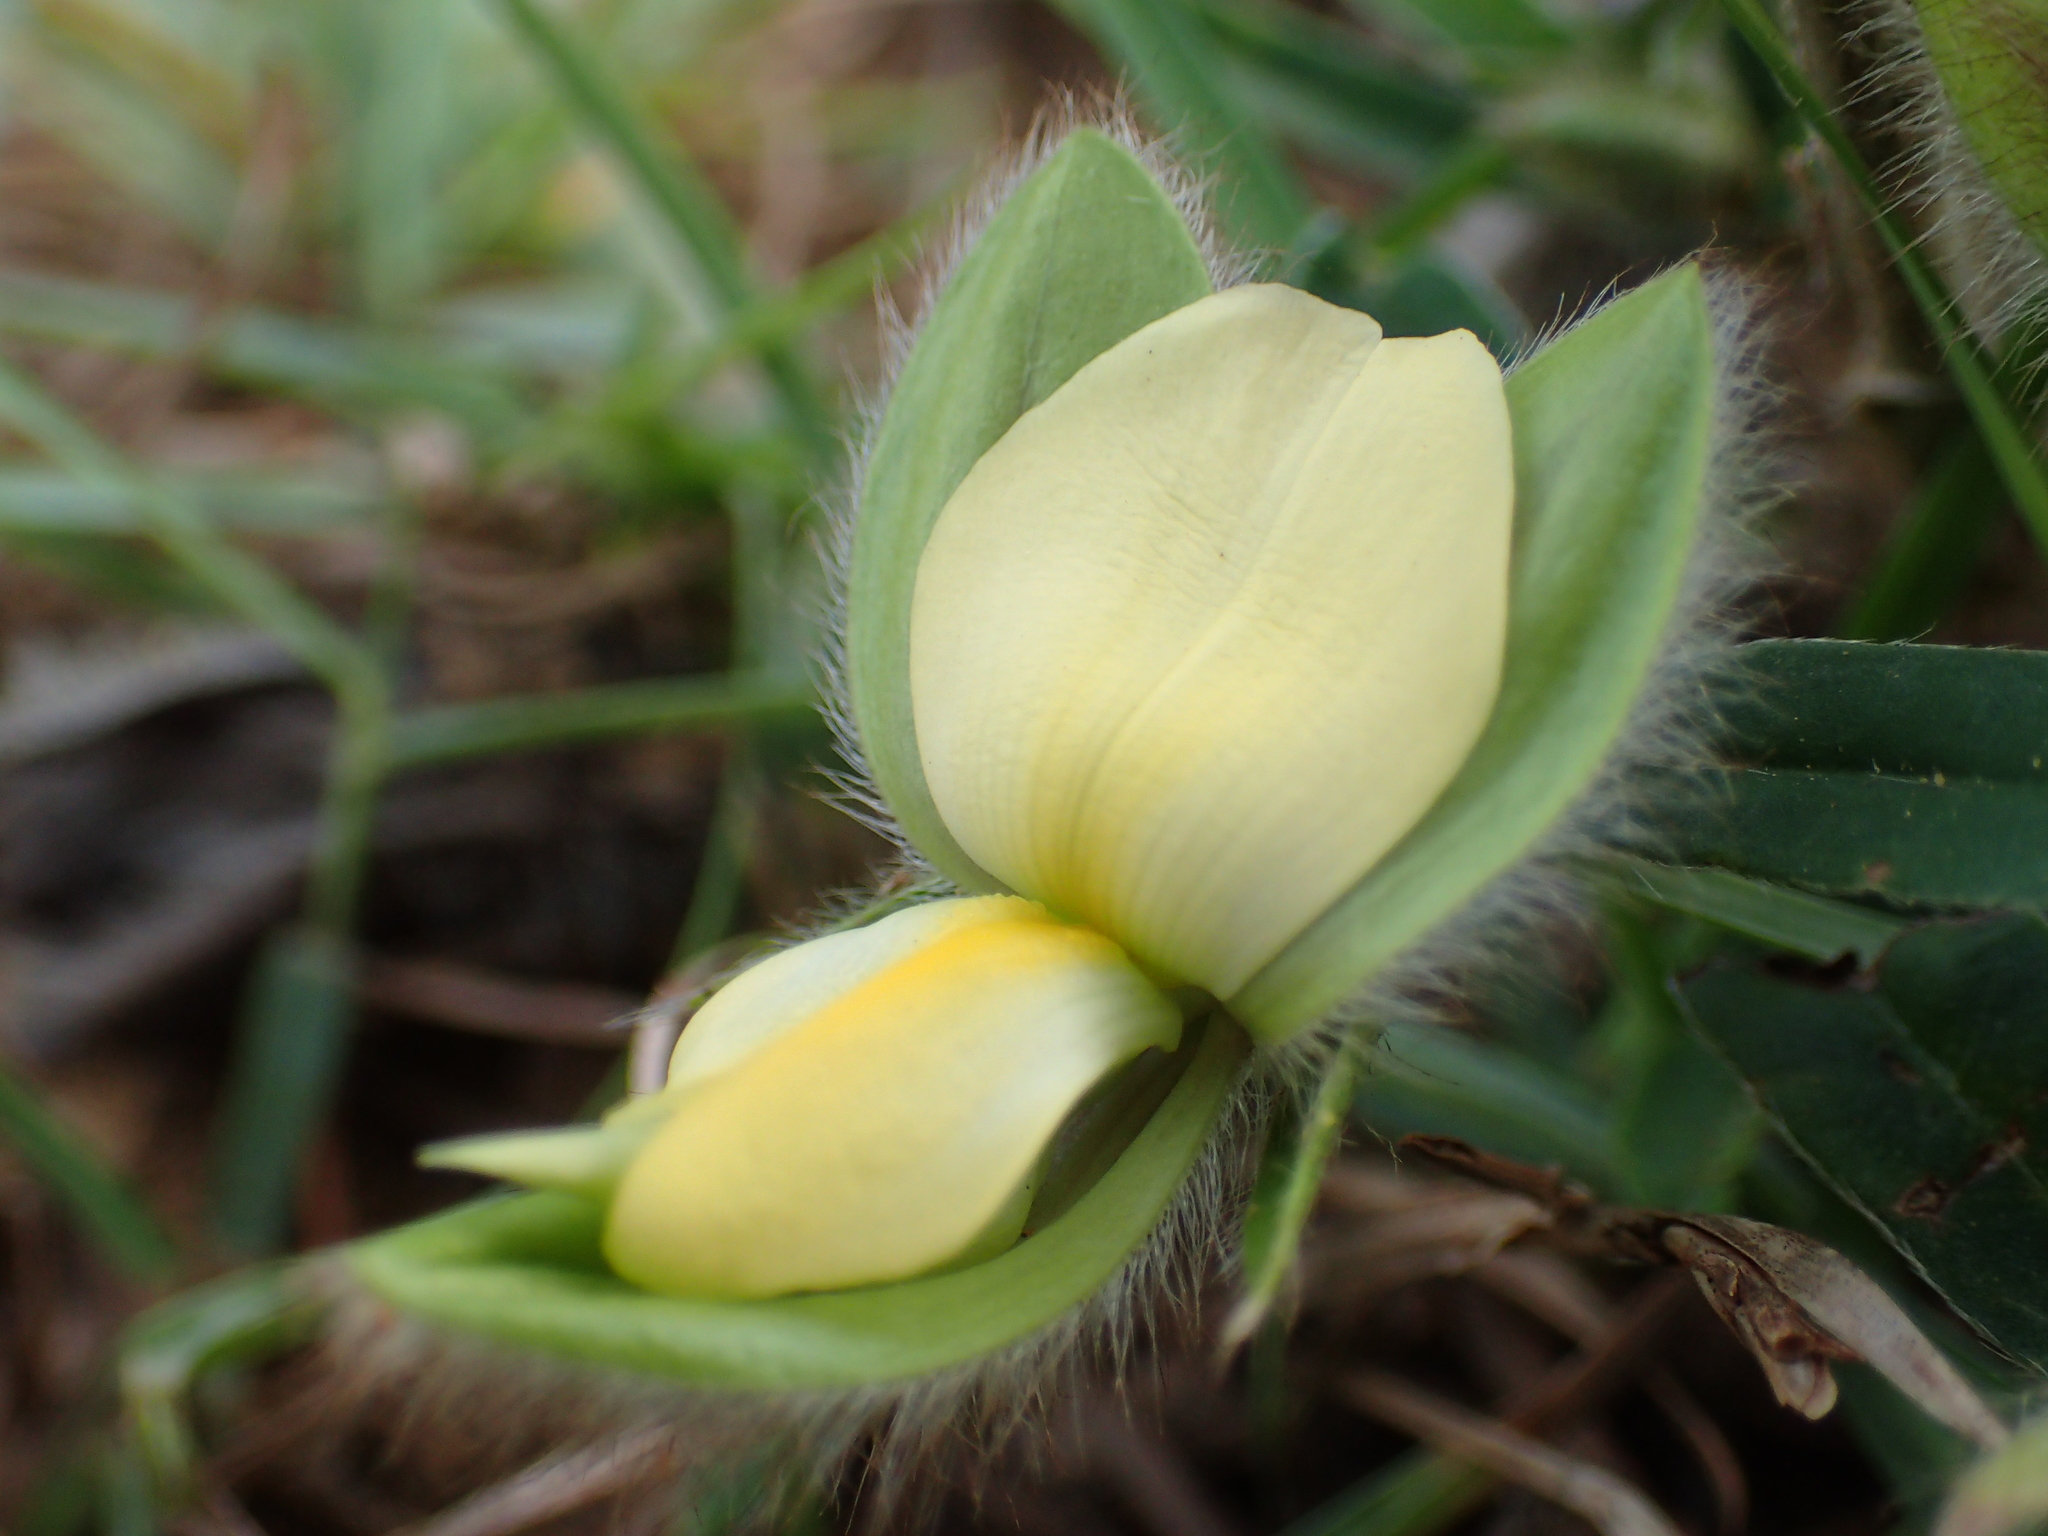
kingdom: Plantae
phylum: Tracheophyta
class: Magnoliopsida
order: Fabales
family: Fabaceae
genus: Crotalaria
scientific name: Crotalaria calycina
